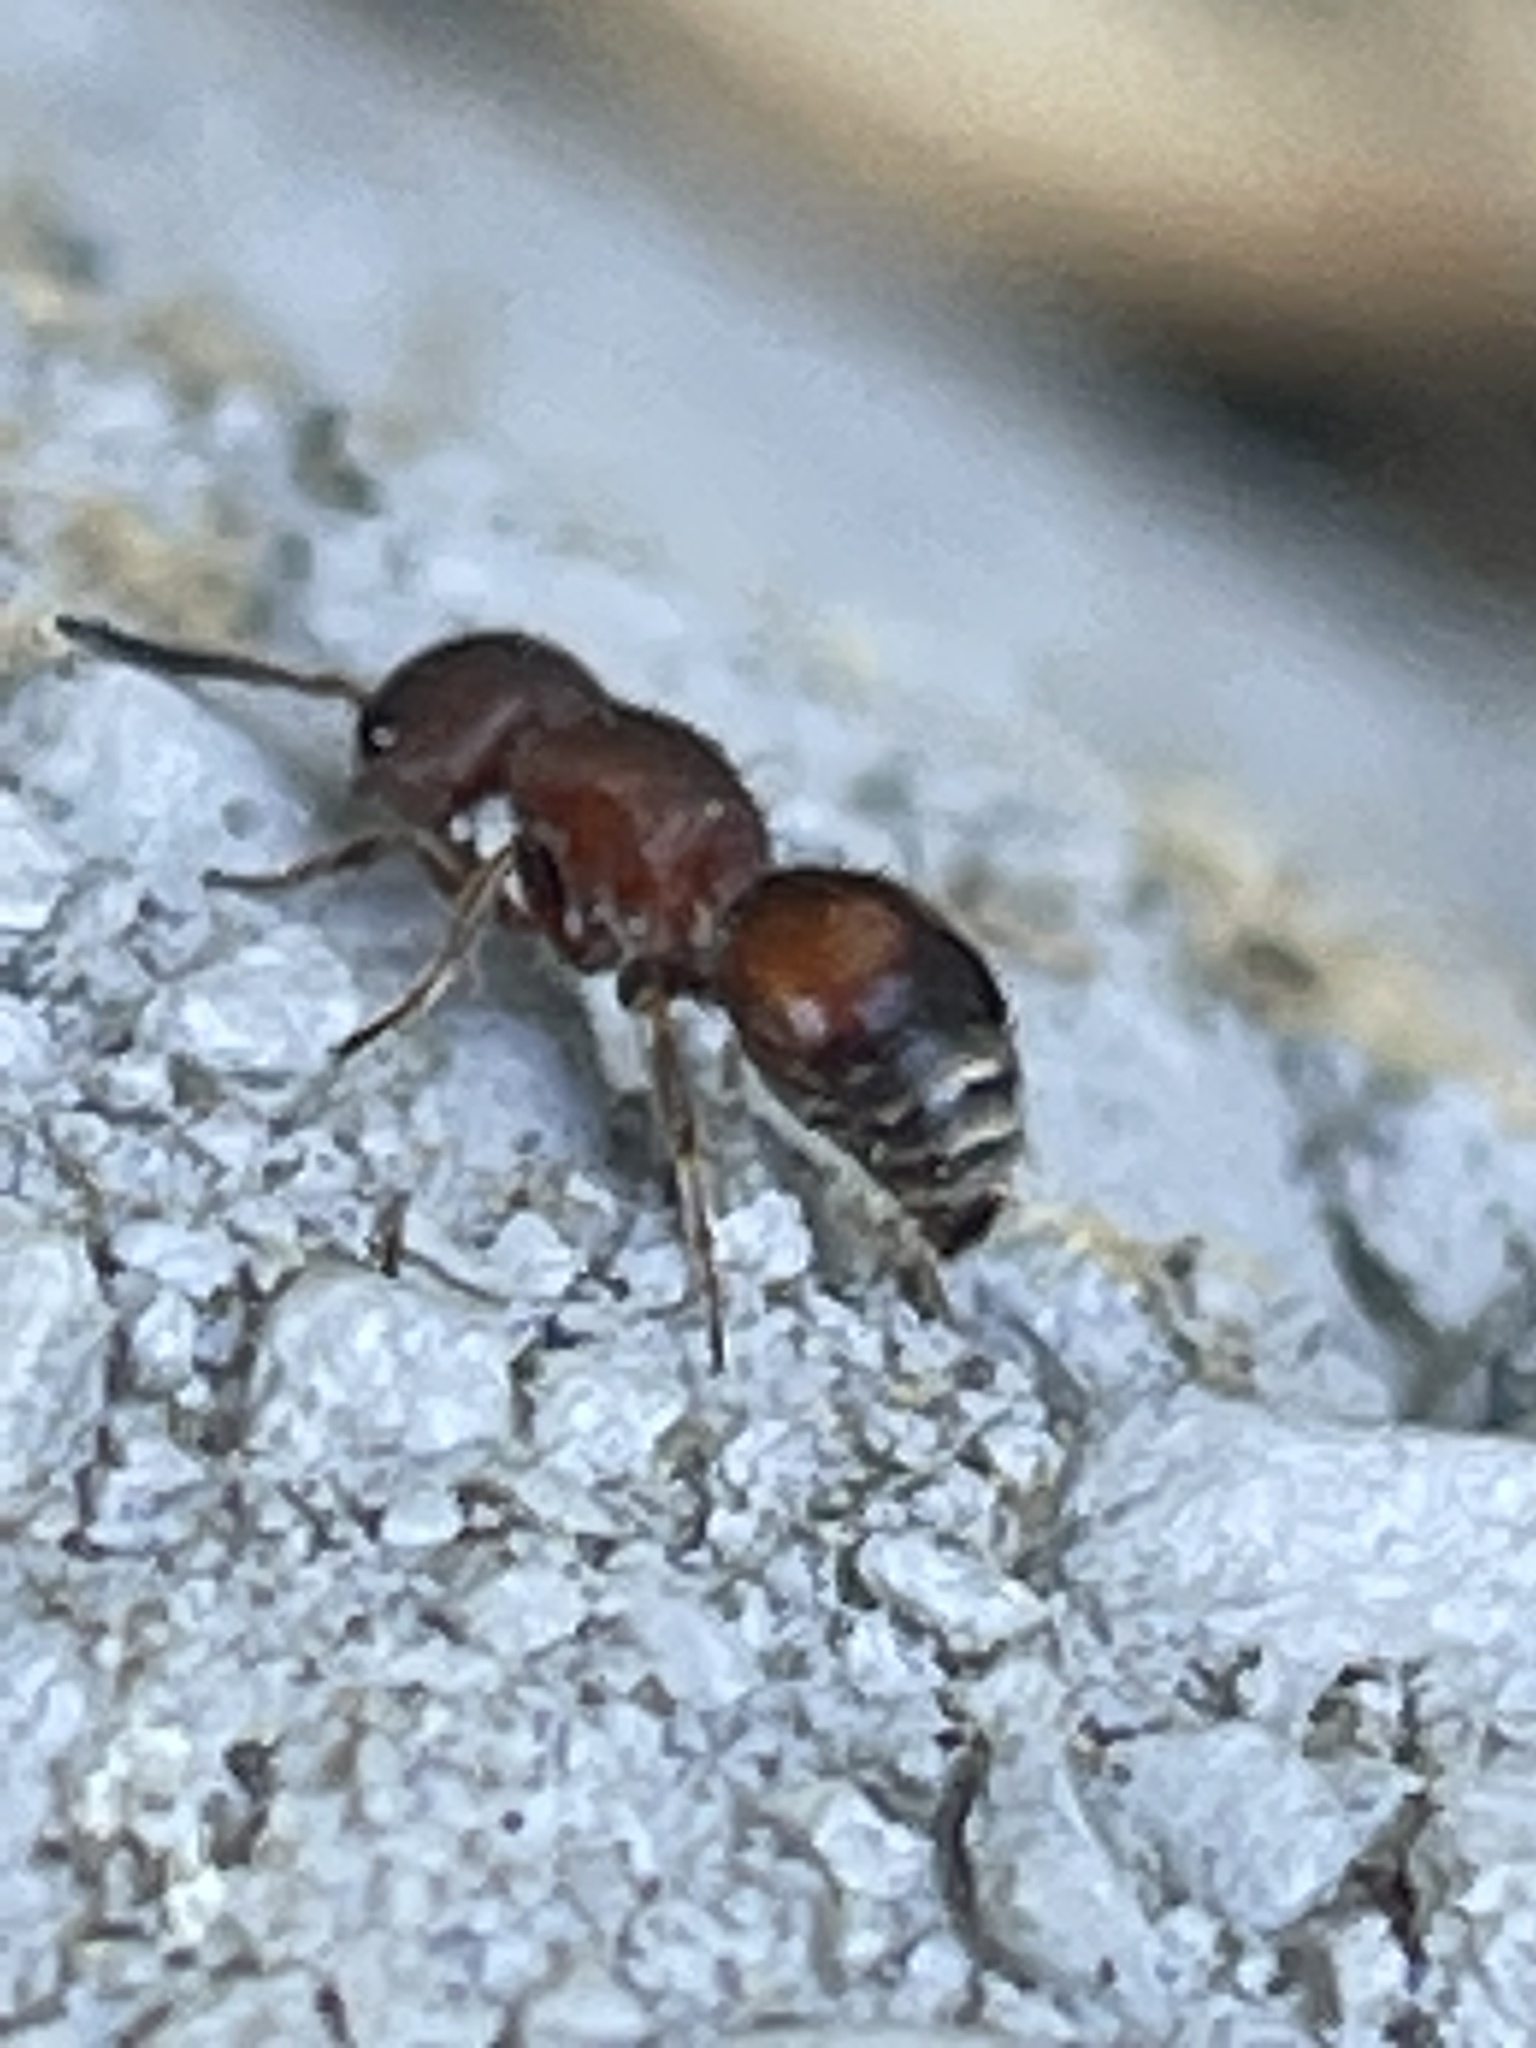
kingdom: Animalia
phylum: Arthropoda
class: Insecta
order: Hymenoptera
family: Mutillidae
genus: Pseudomethoca
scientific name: Pseudomethoca
